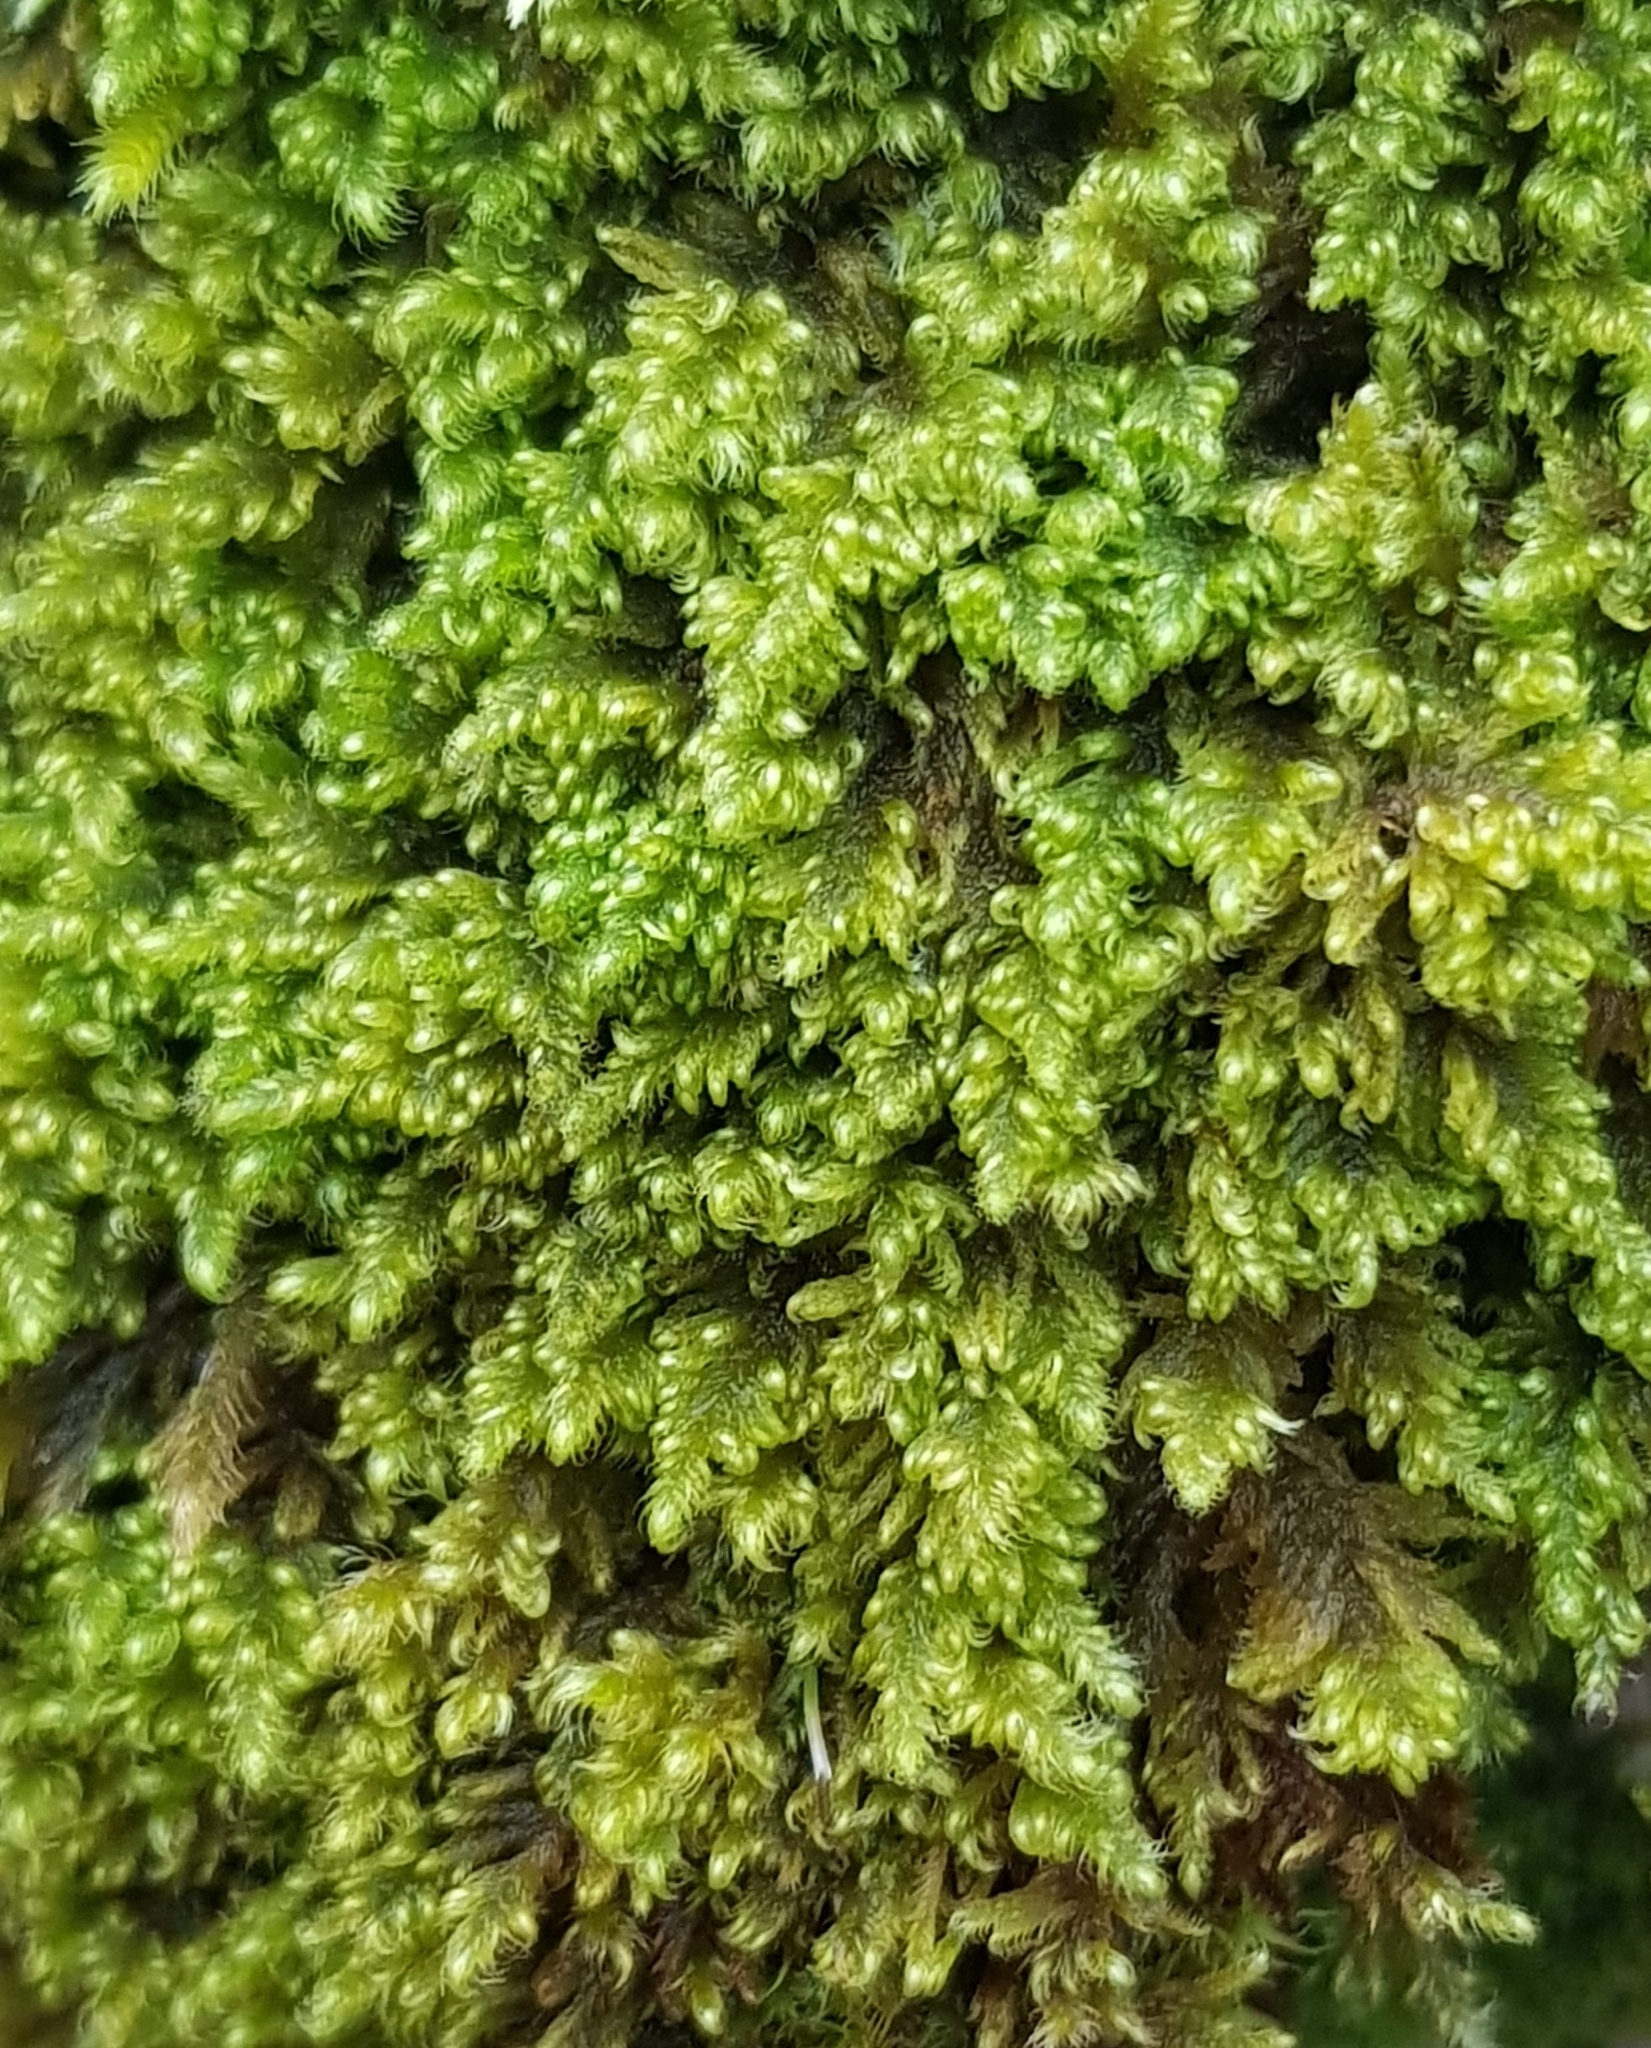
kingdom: Plantae
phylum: Bryophyta
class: Bryopsida
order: Hypnales
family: Myuriaceae
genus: Ctenidium
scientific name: Ctenidium molluscum
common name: Chalk comb-moss
